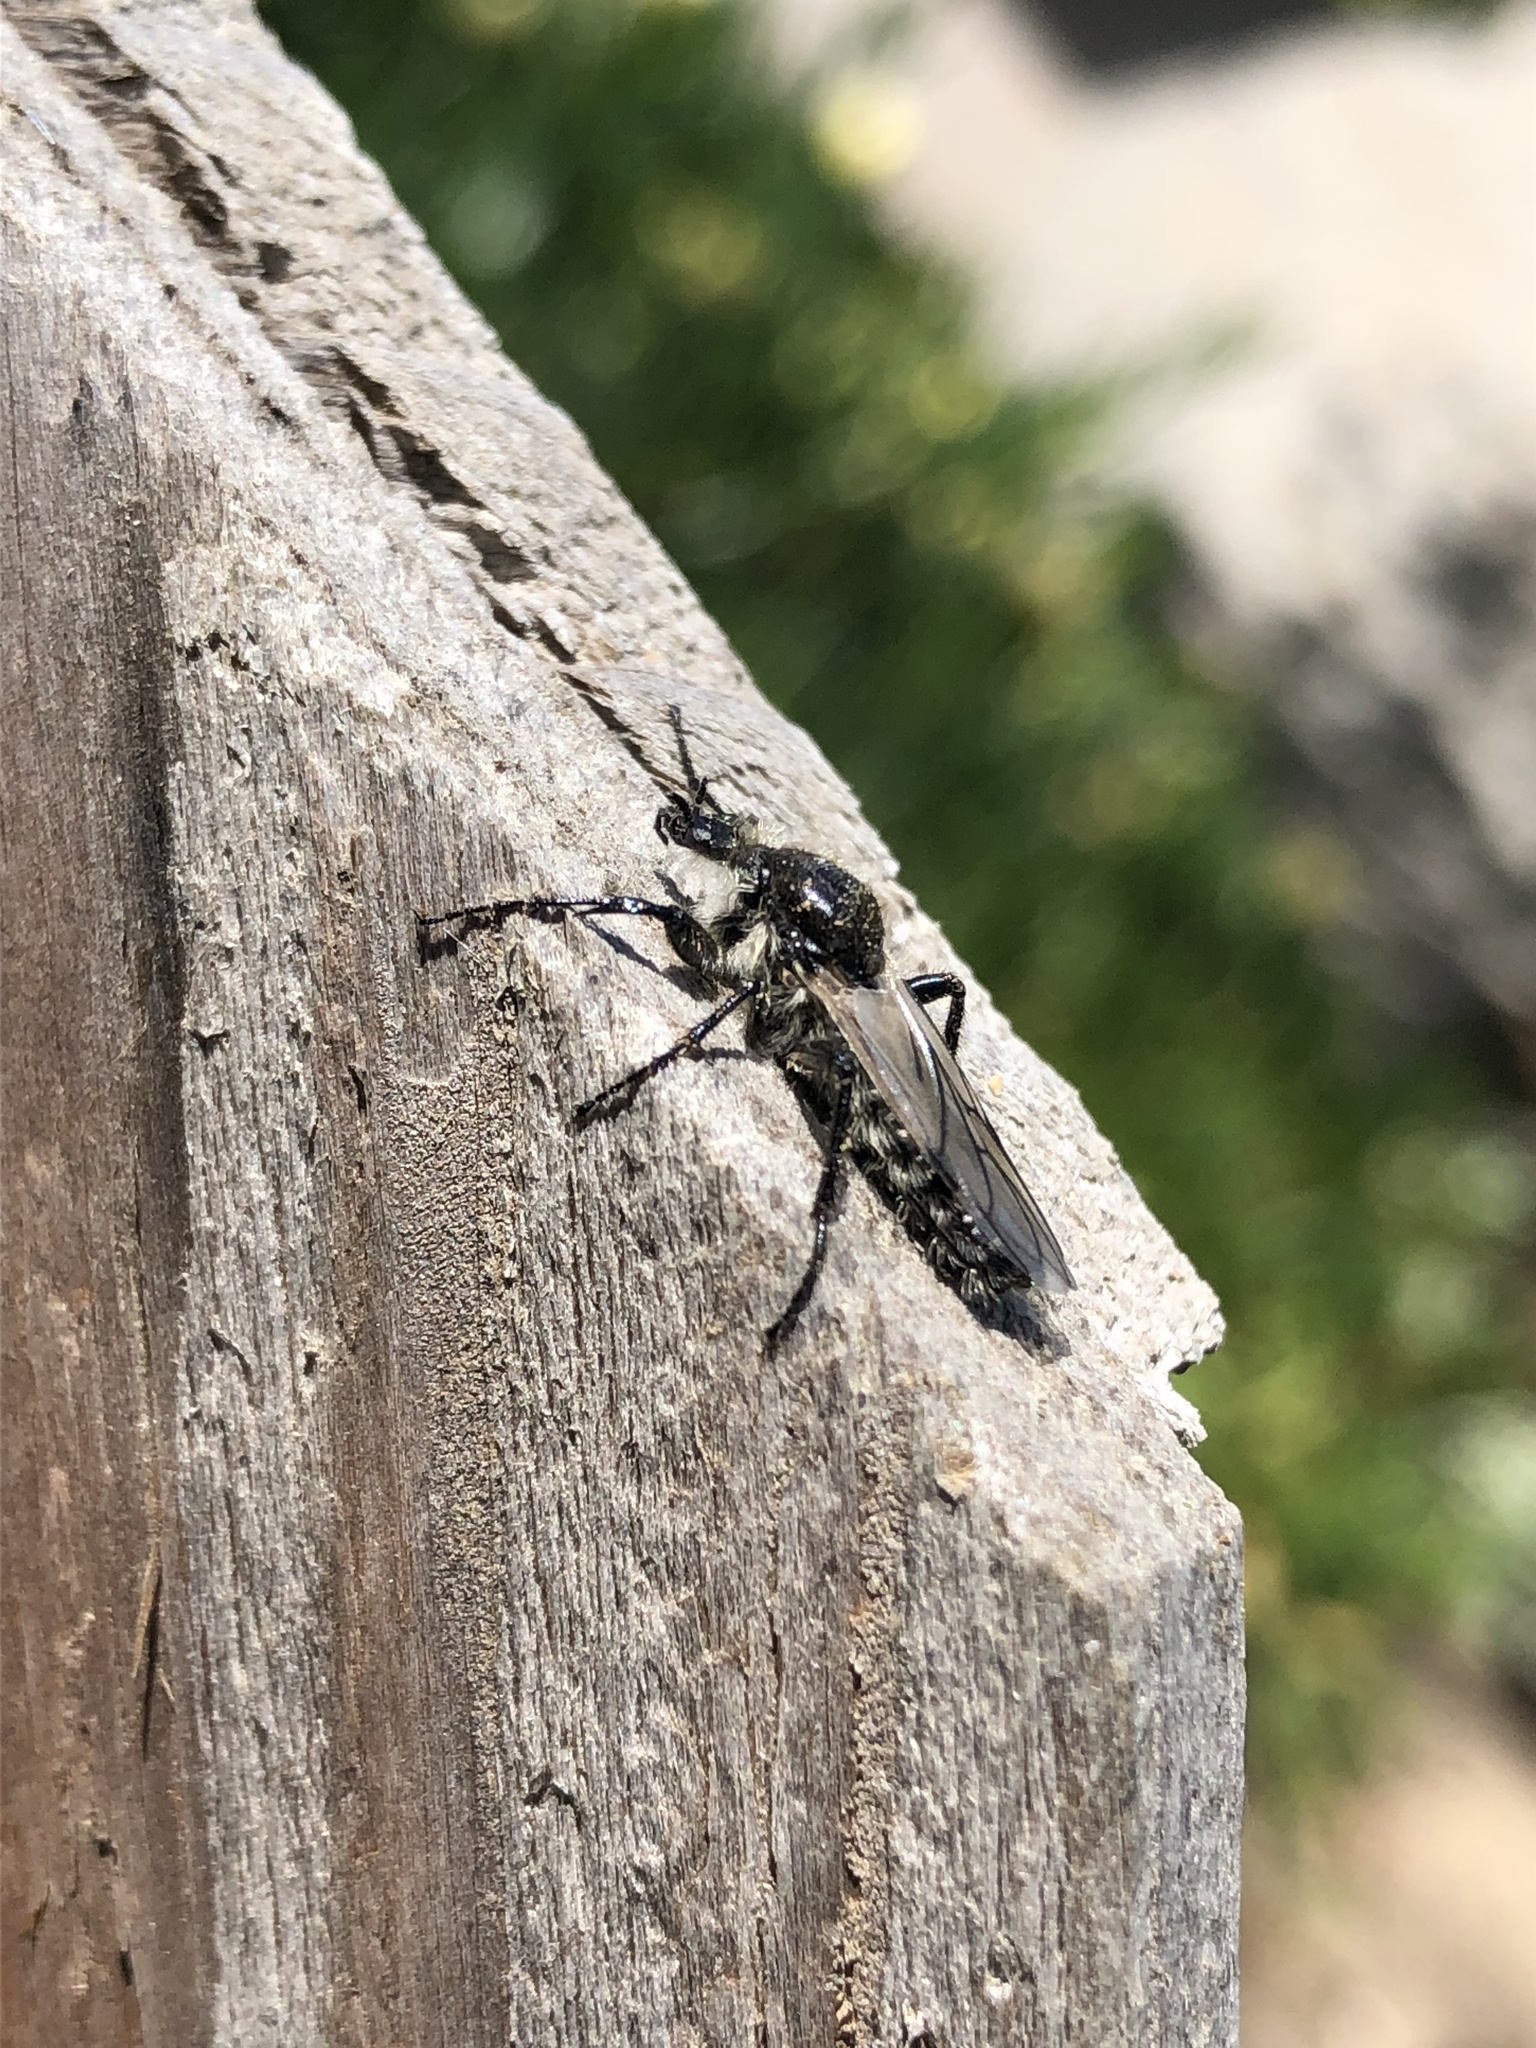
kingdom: Animalia
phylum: Arthropoda
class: Insecta
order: Diptera
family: Bibionidae
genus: Bibio
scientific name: Bibio albipennis
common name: White-winged march fly
